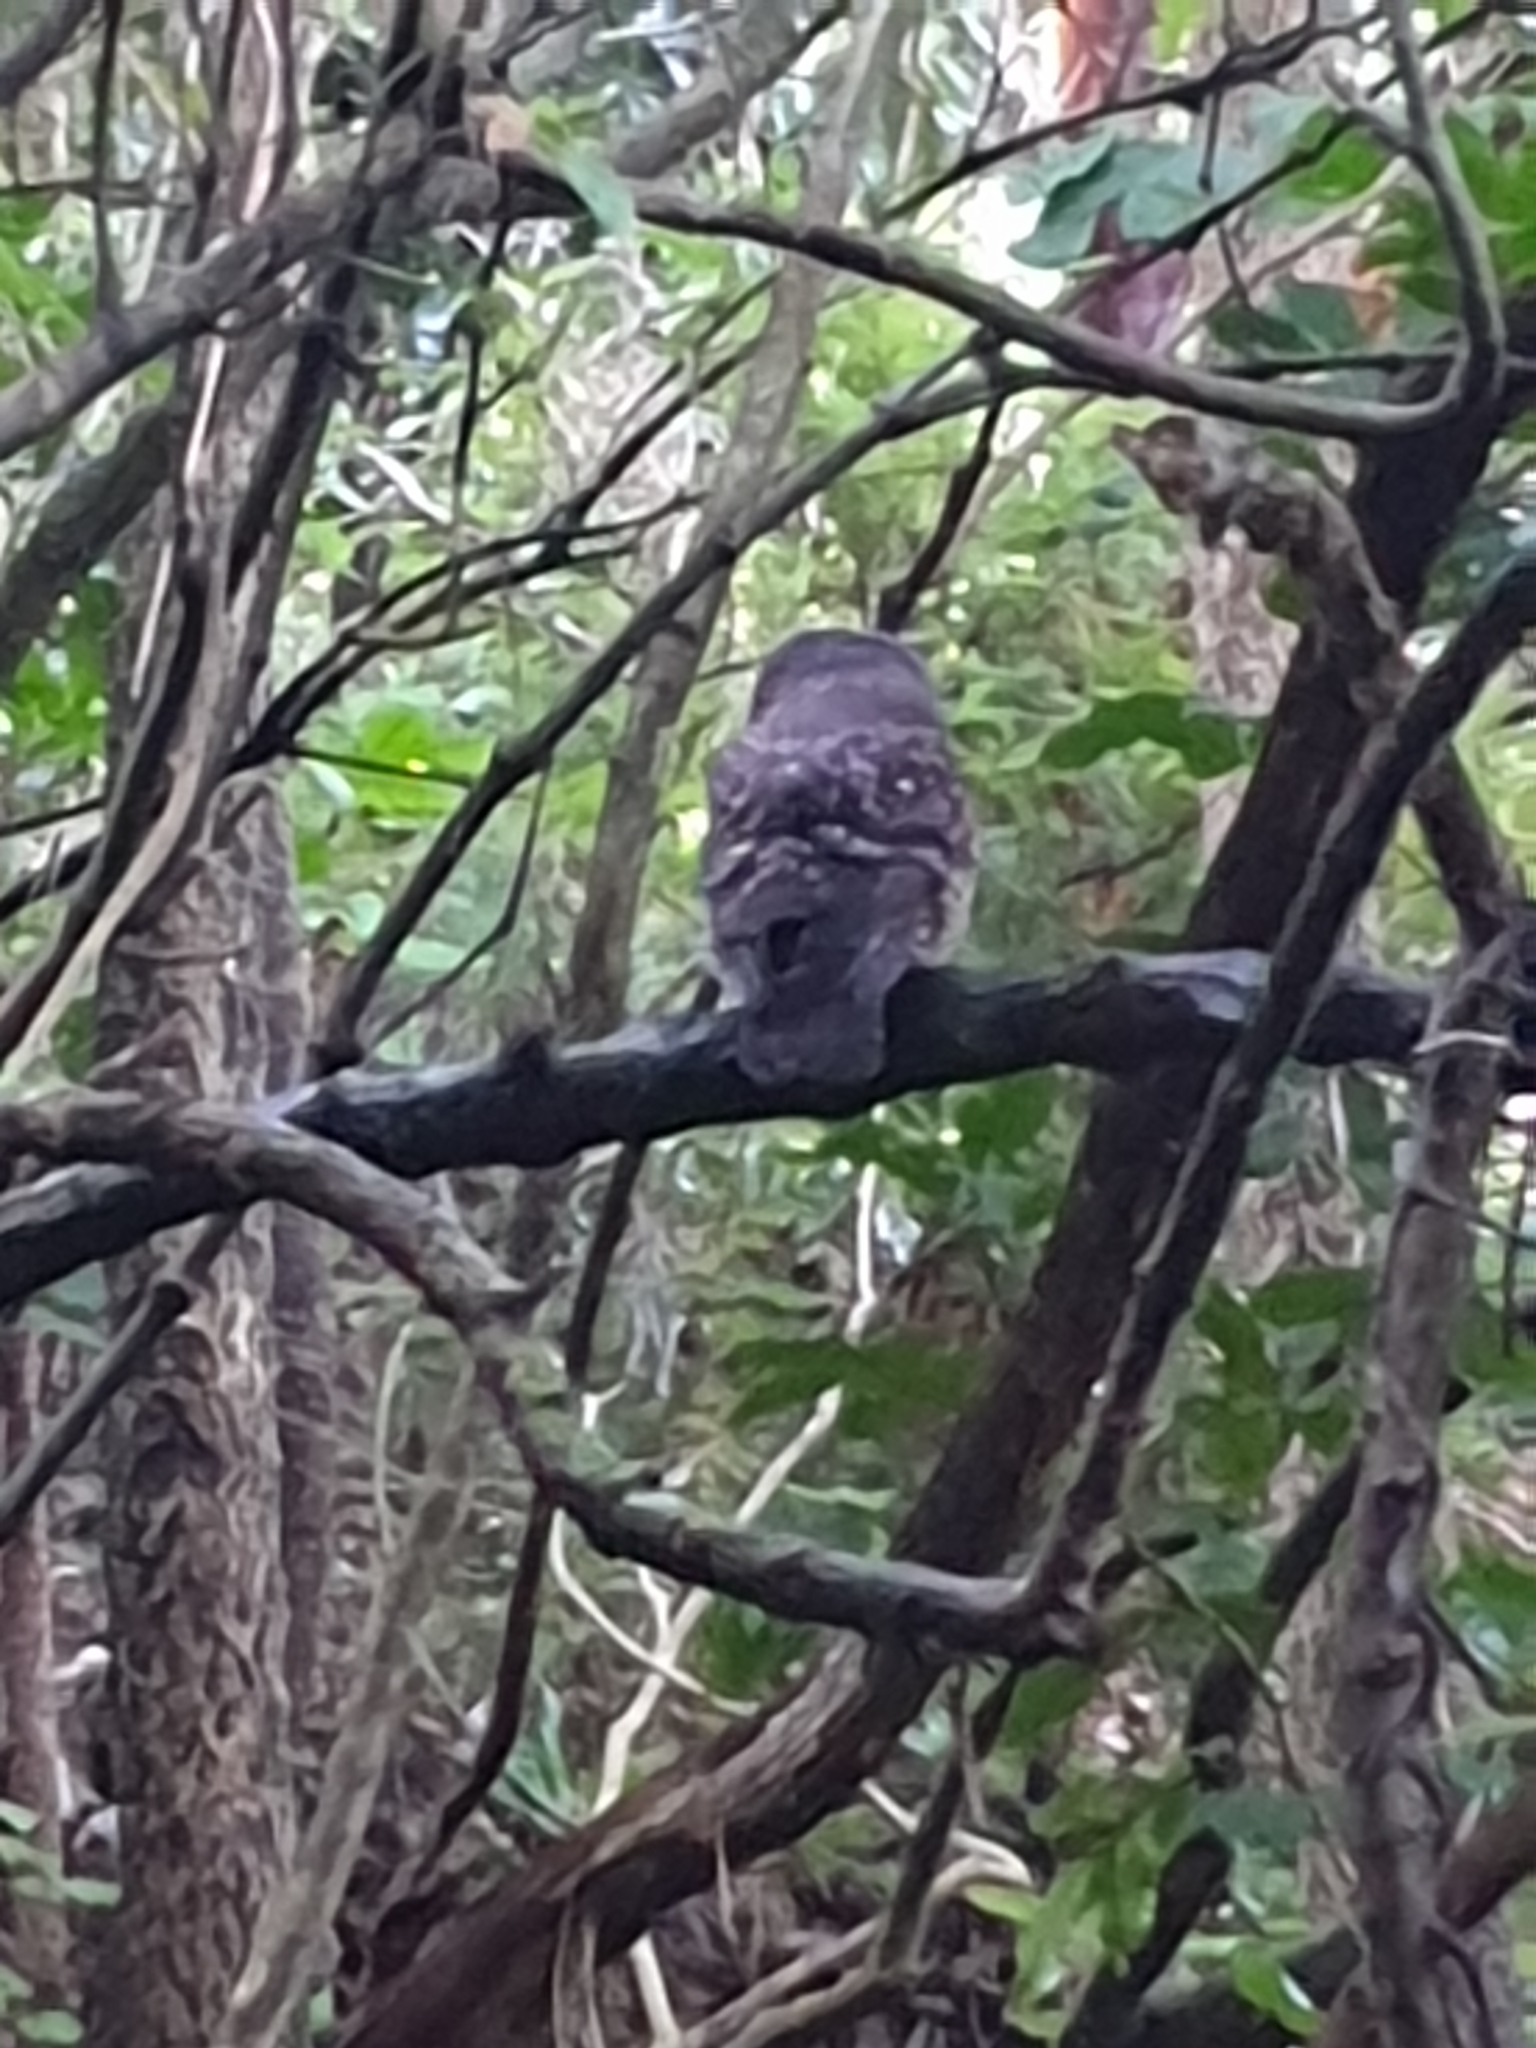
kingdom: Animalia
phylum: Chordata
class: Aves
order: Strigiformes
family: Strigidae
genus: Ninox
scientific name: Ninox novaeseelandiae
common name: Morepork
